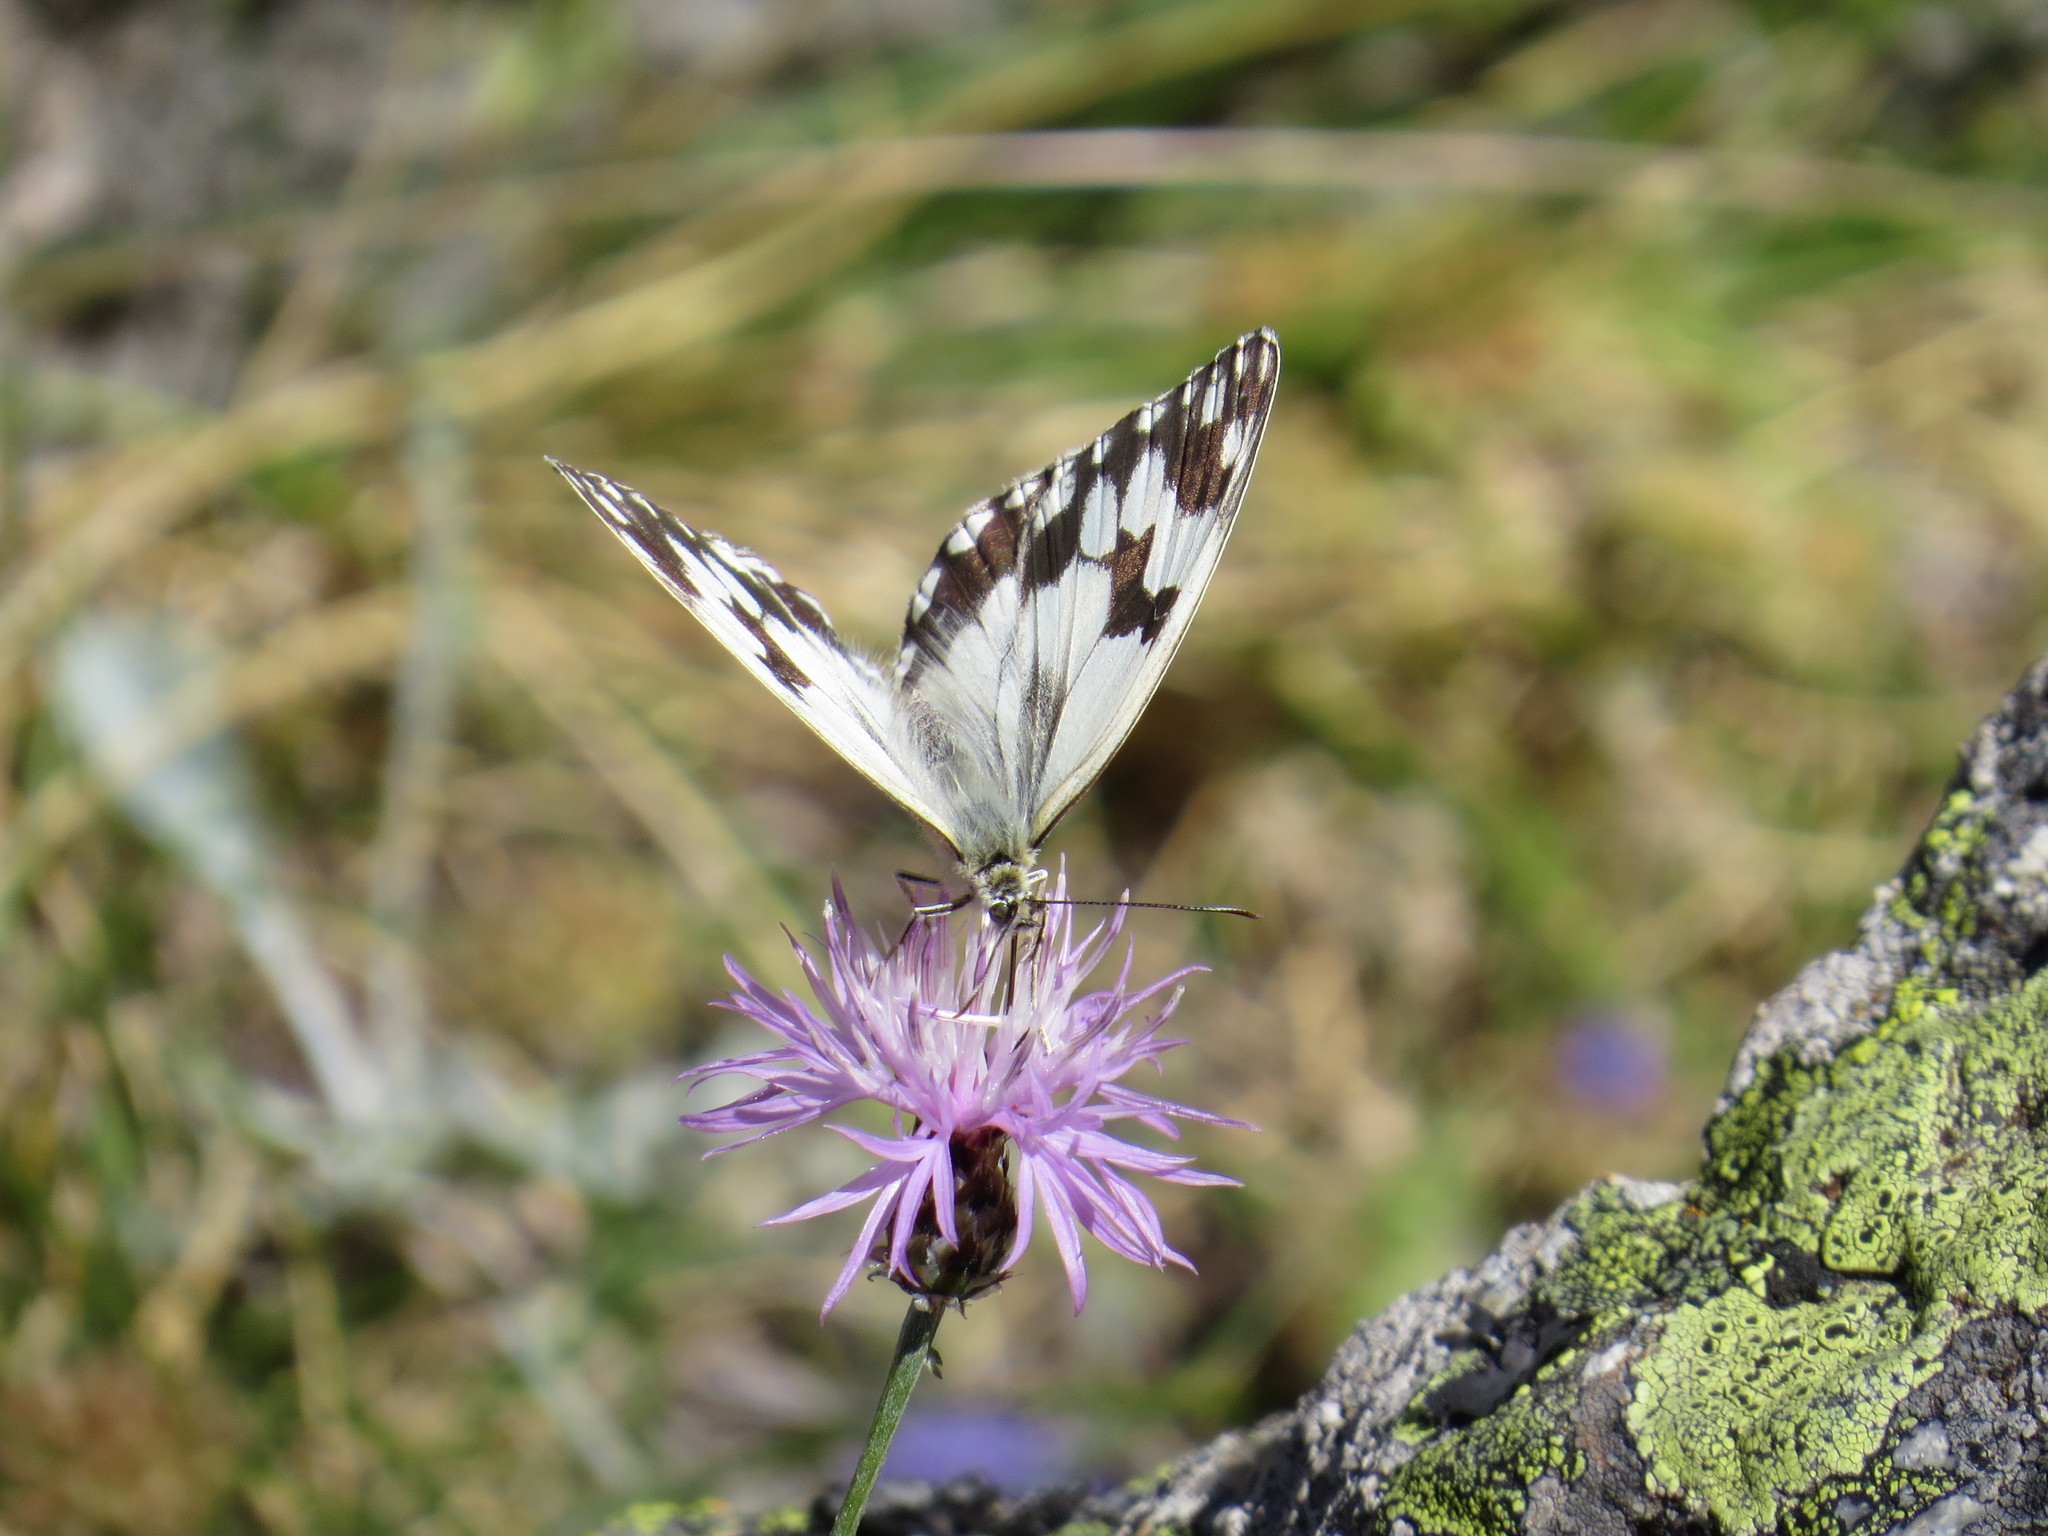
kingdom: Animalia
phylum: Arthropoda
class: Insecta
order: Lepidoptera
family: Nymphalidae
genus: Melanargia
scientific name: Melanargia lachesis
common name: Iberian marbled white
